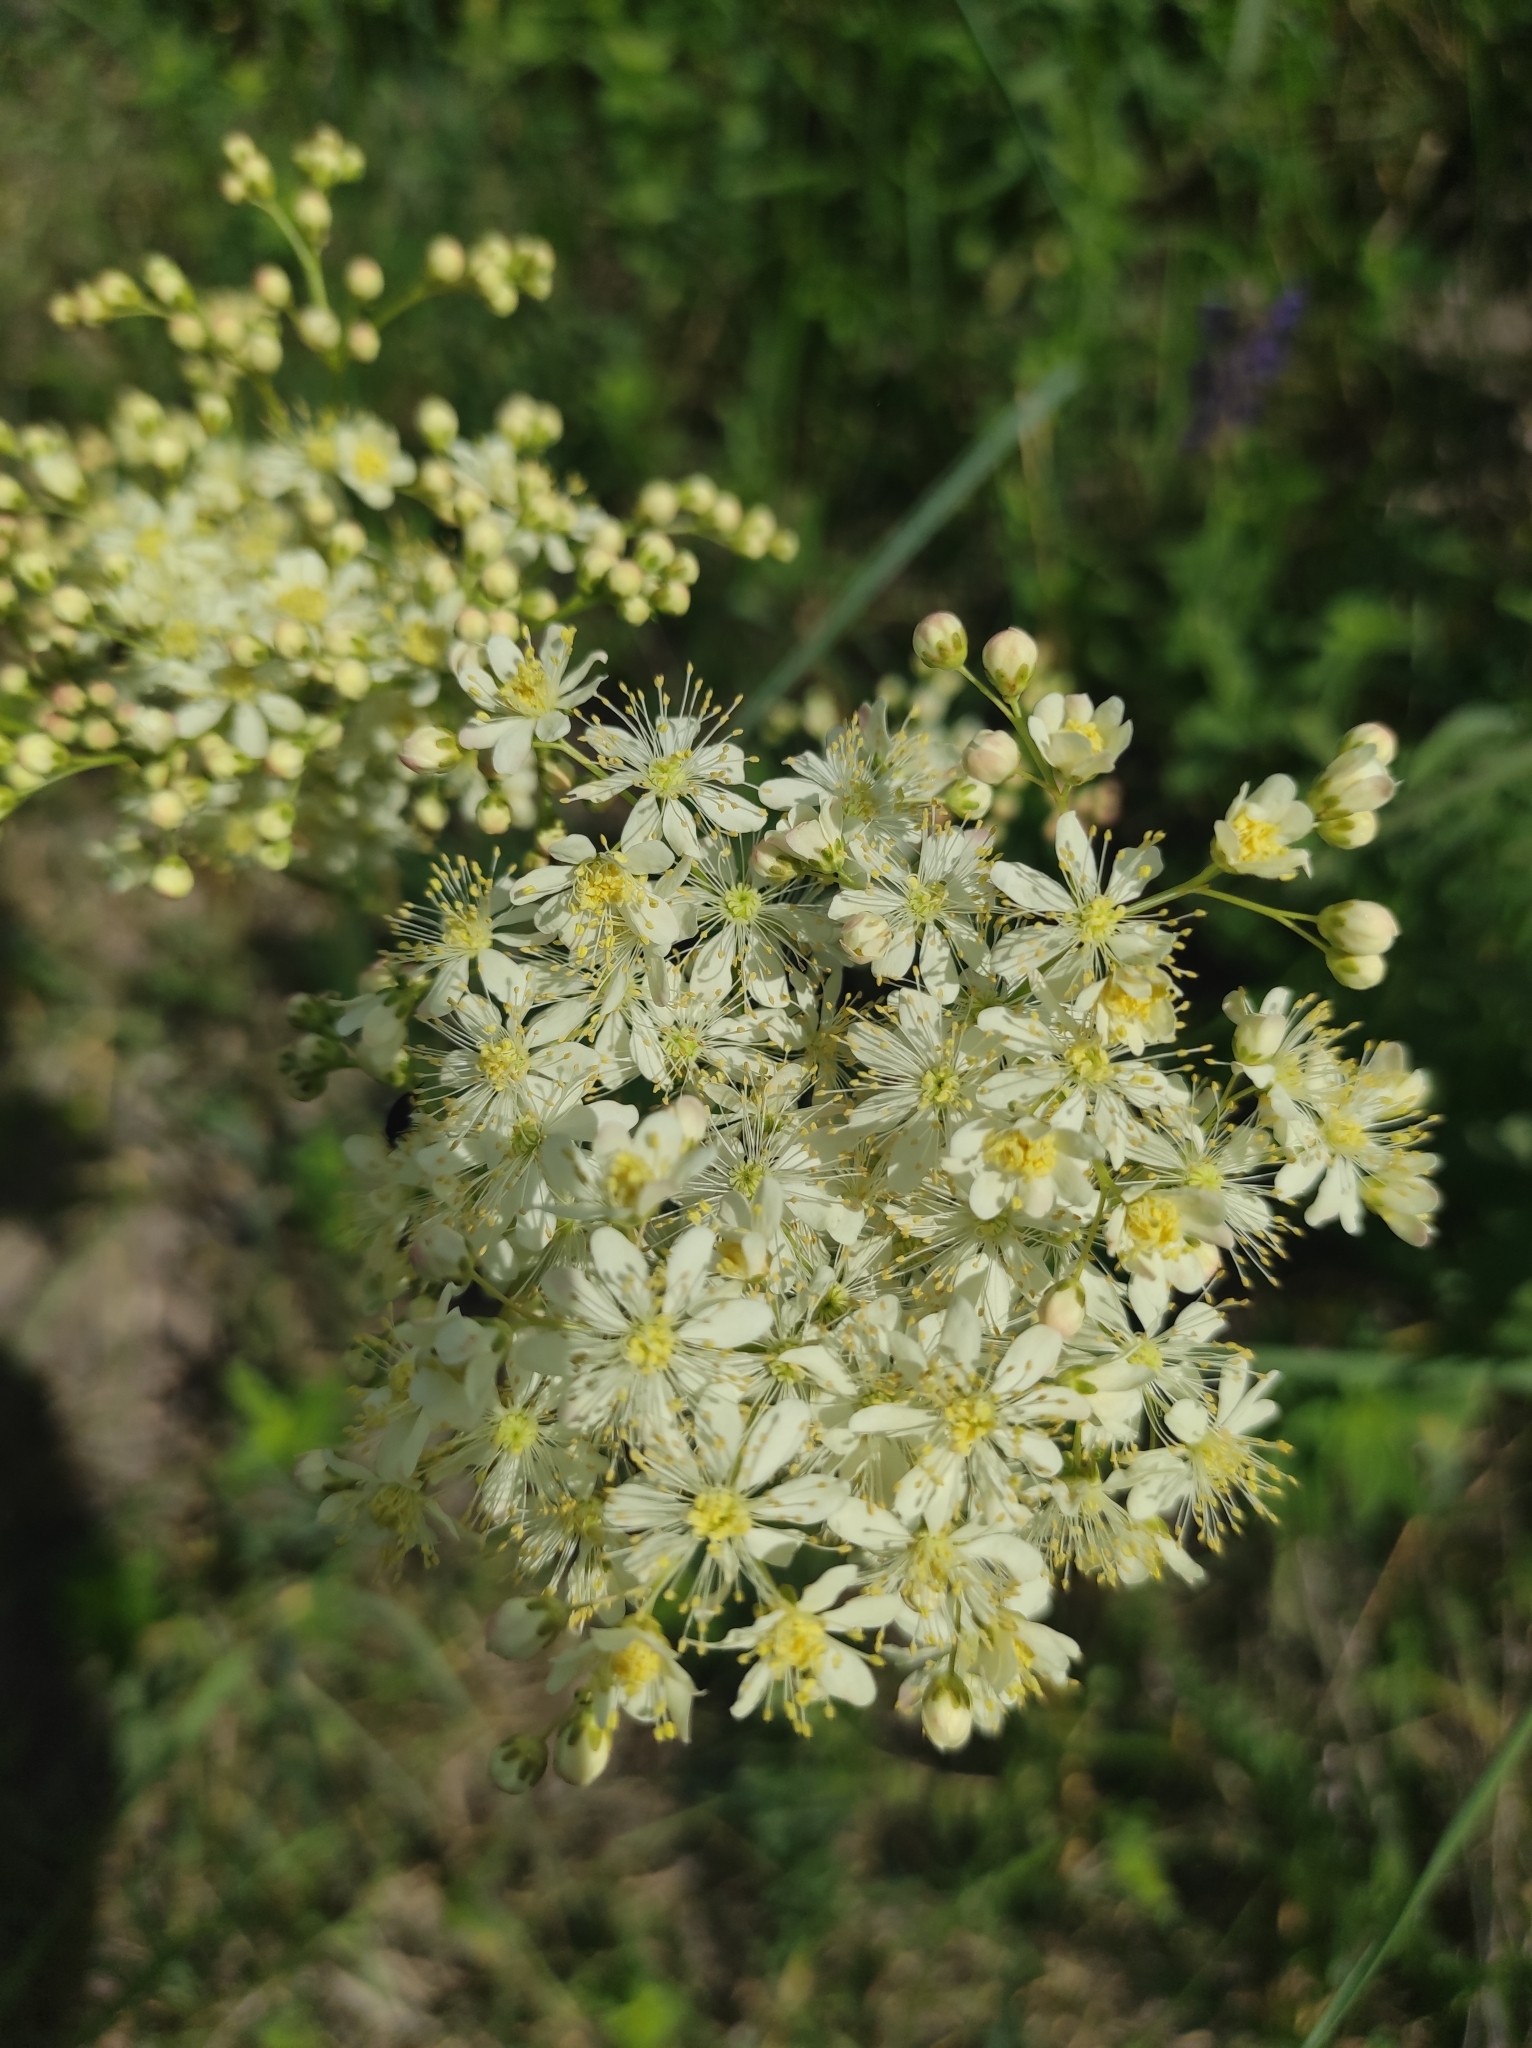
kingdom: Plantae
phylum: Tracheophyta
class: Magnoliopsida
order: Rosales
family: Rosaceae
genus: Filipendula
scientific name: Filipendula vulgaris
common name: Dropwort
